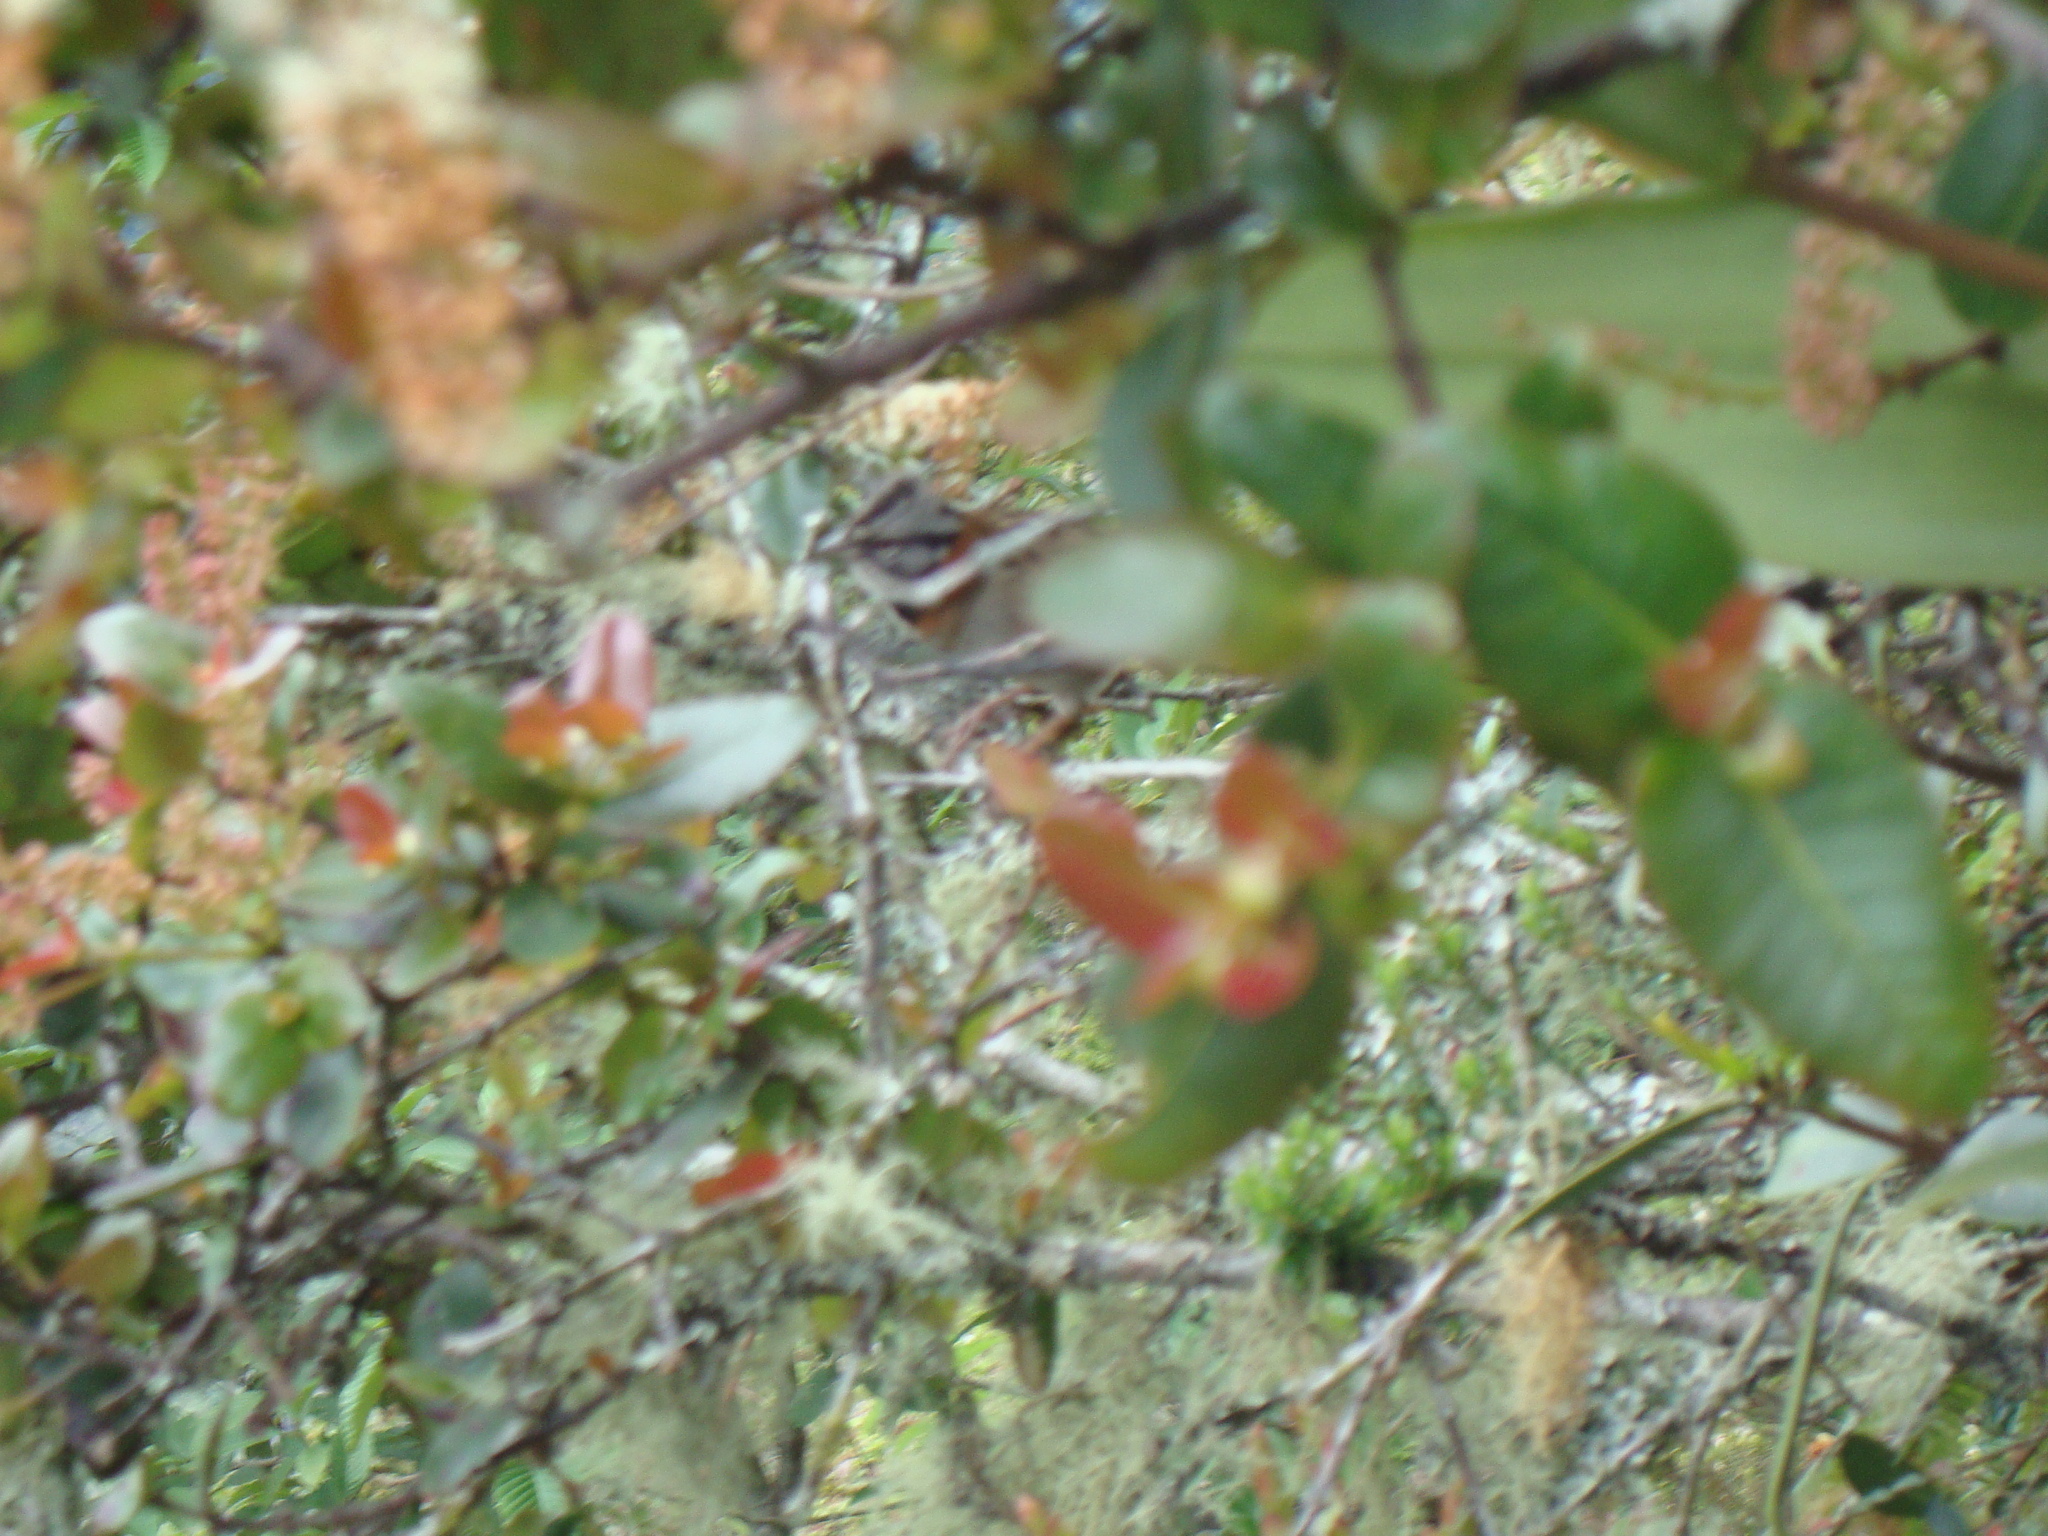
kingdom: Animalia
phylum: Chordata
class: Aves
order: Passeriformes
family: Passerellidae
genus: Zonotrichia
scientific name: Zonotrichia capensis
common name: Rufous-collared sparrow
